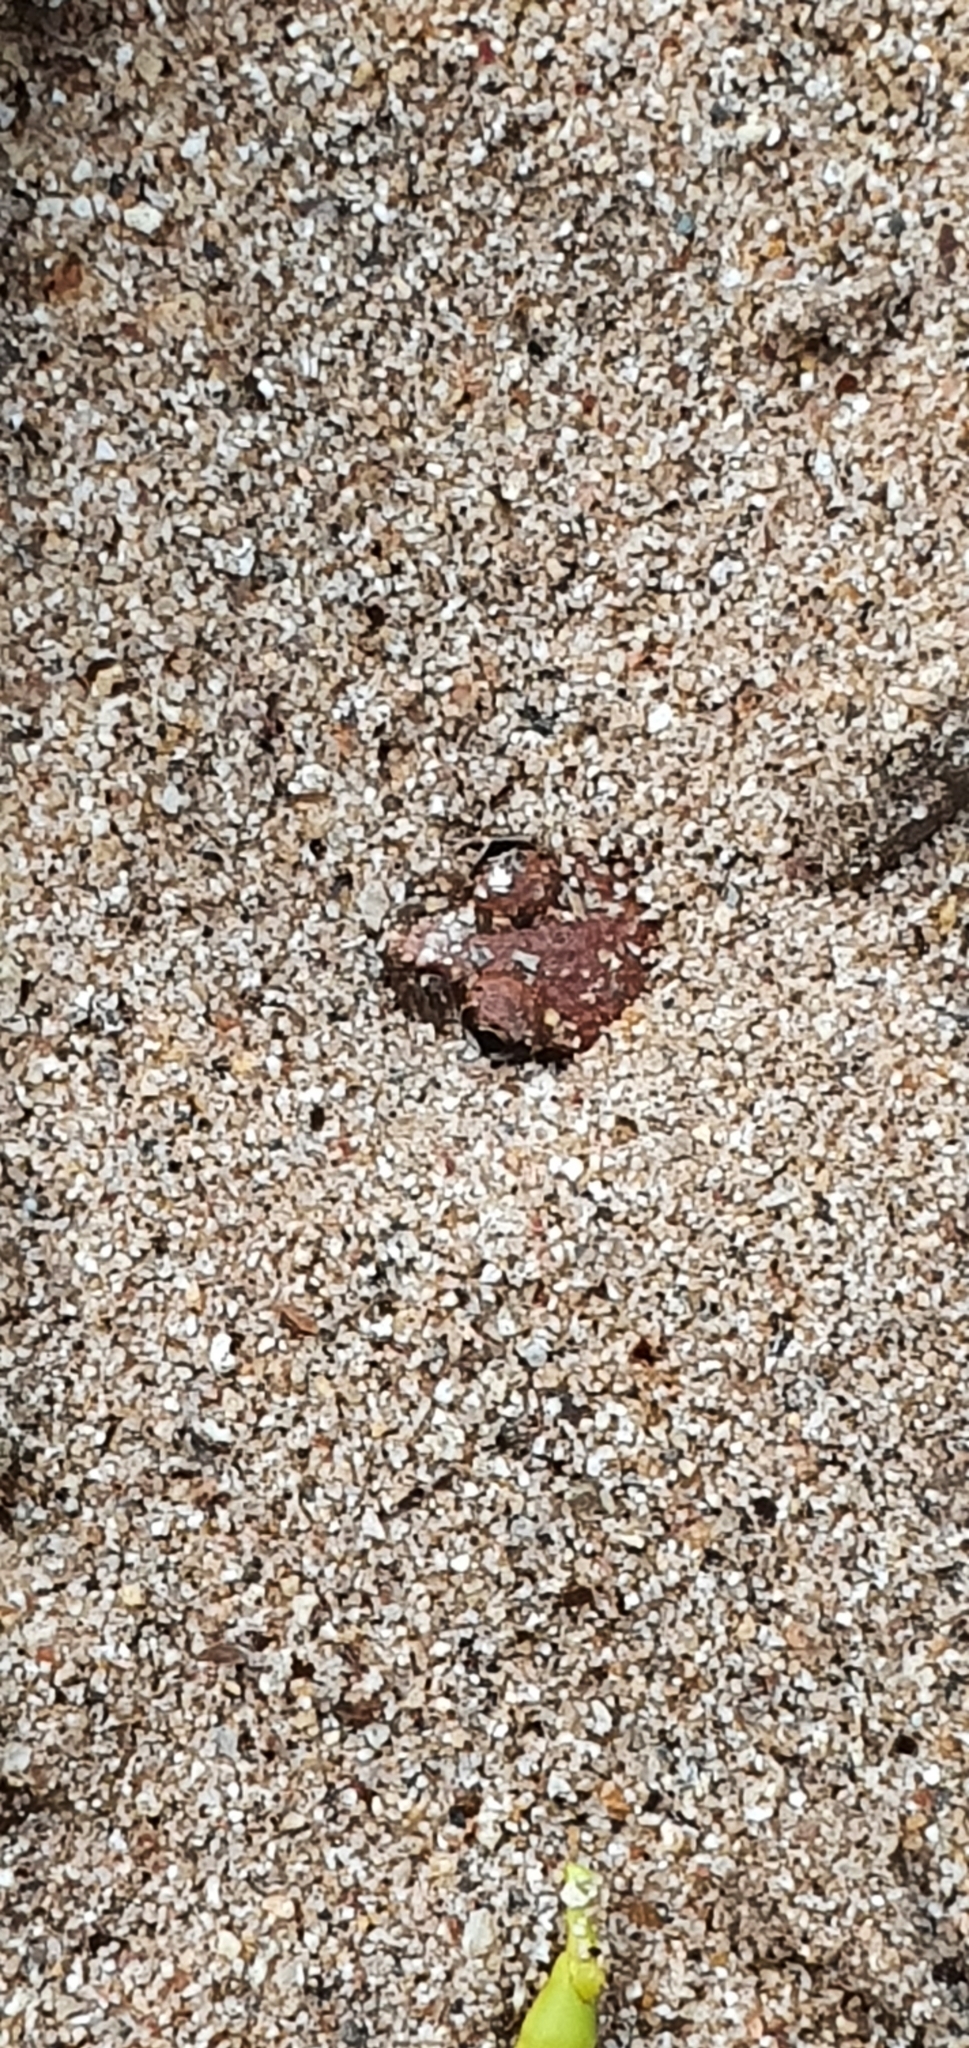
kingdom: Animalia
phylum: Chordata
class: Amphibia
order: Anura
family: Limnodynastidae
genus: Platyplectrum
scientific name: Platyplectrum ornatum
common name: Ornate burrowing frog
